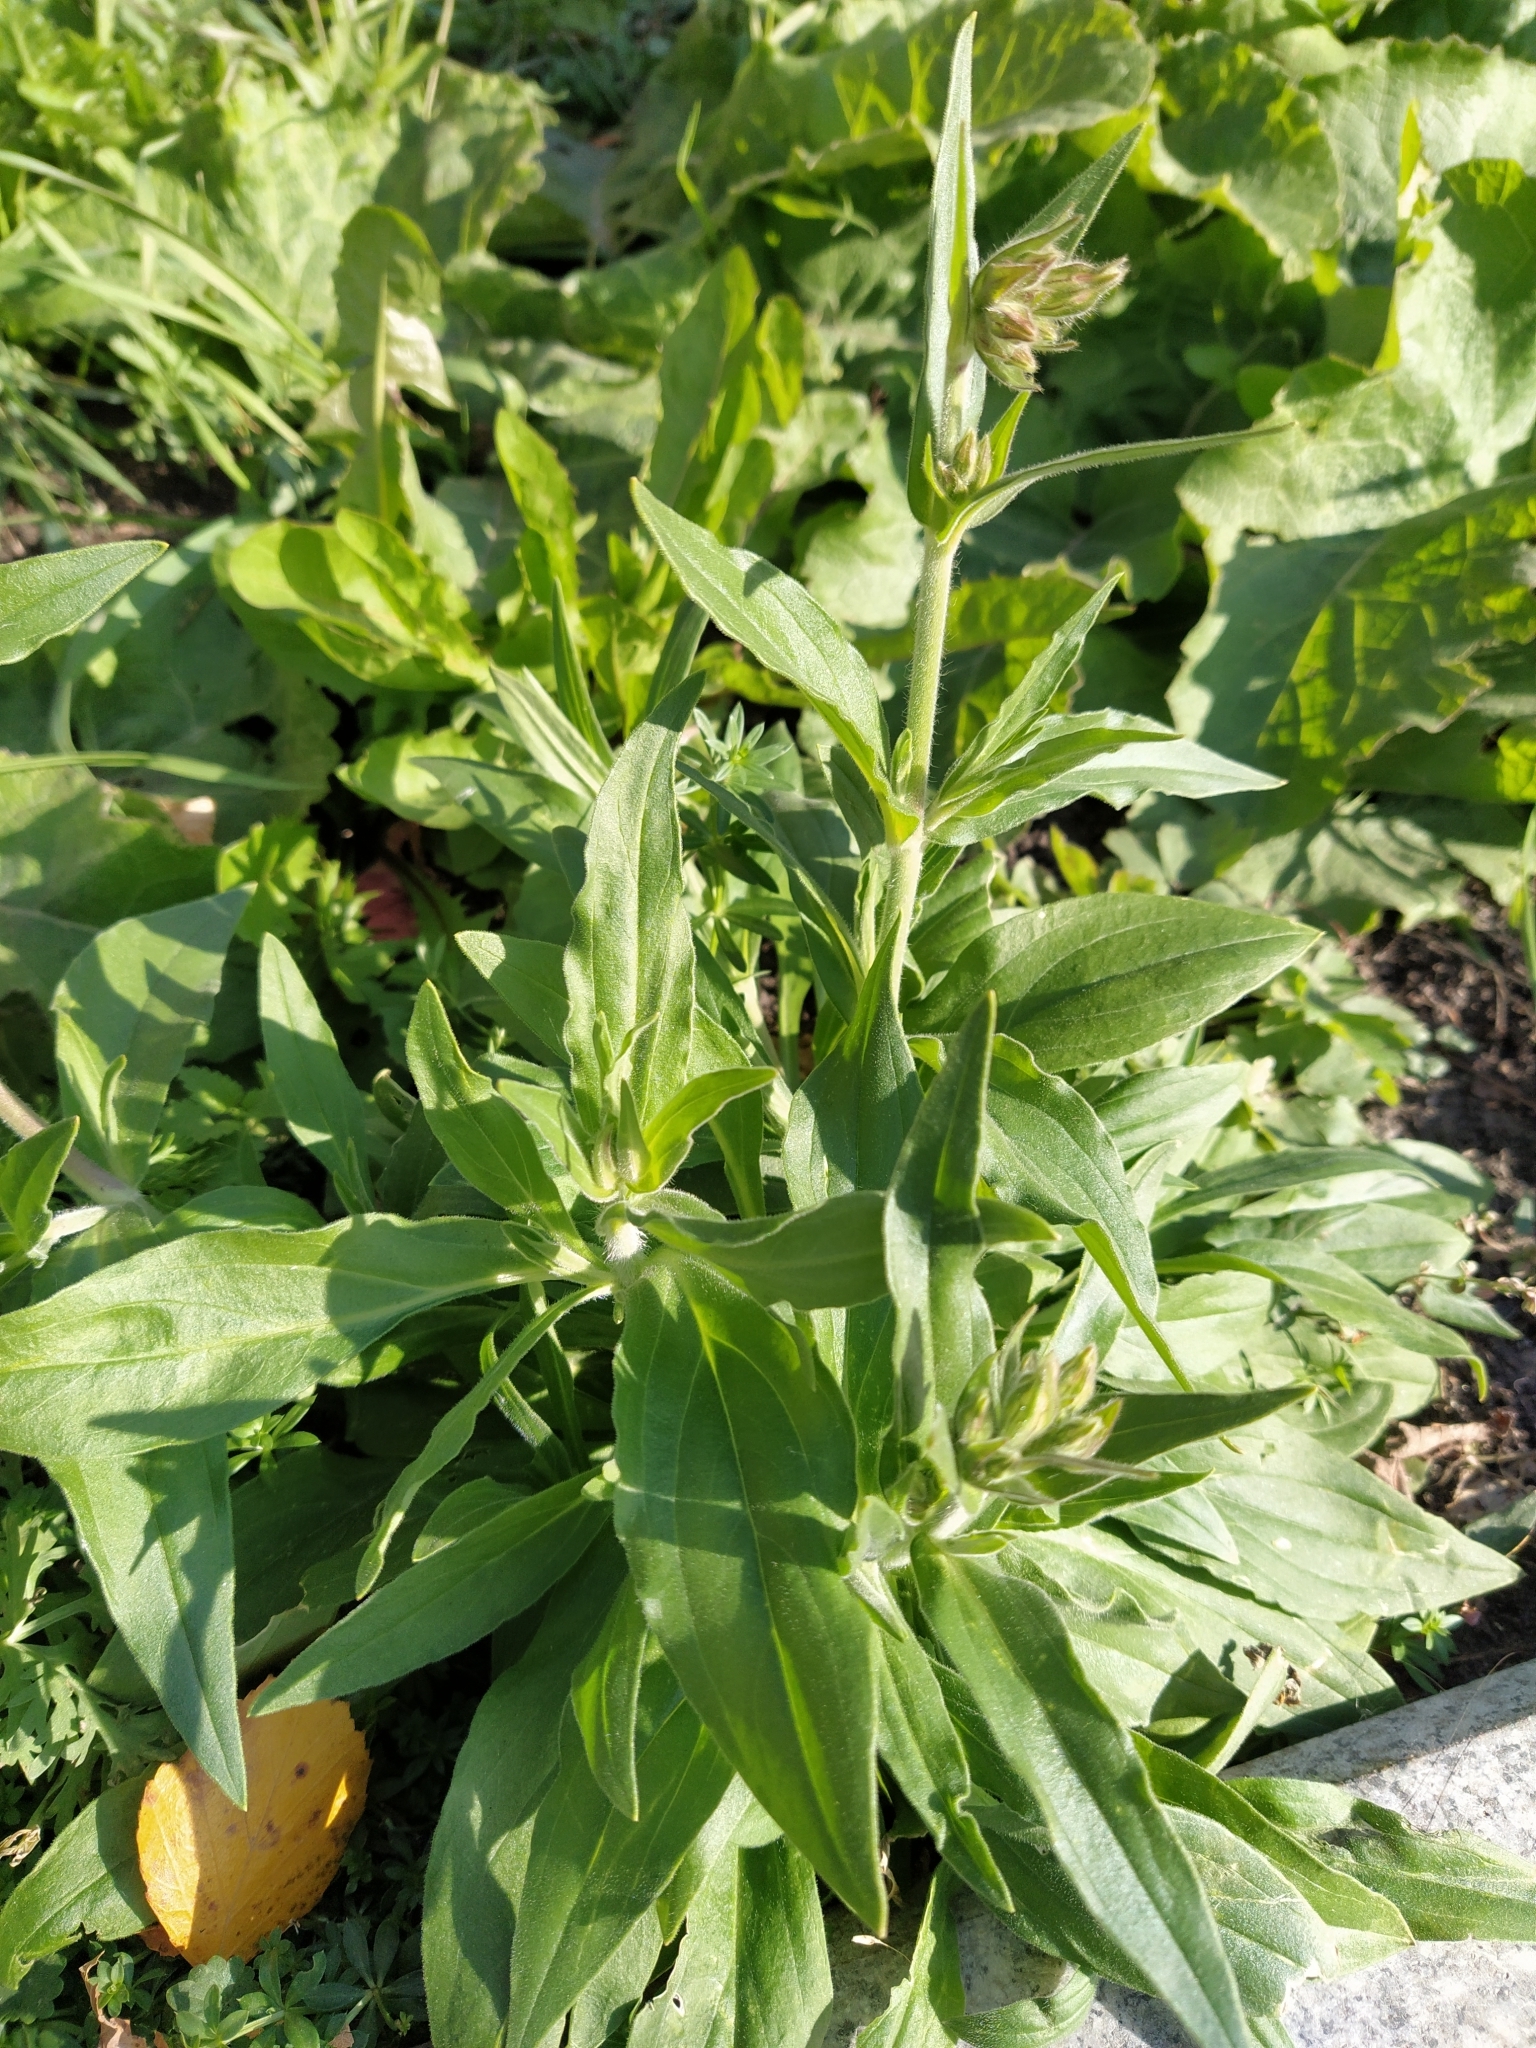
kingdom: Plantae
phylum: Tracheophyta
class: Magnoliopsida
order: Caryophyllales
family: Caryophyllaceae
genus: Silene
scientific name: Silene latifolia
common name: White campion
